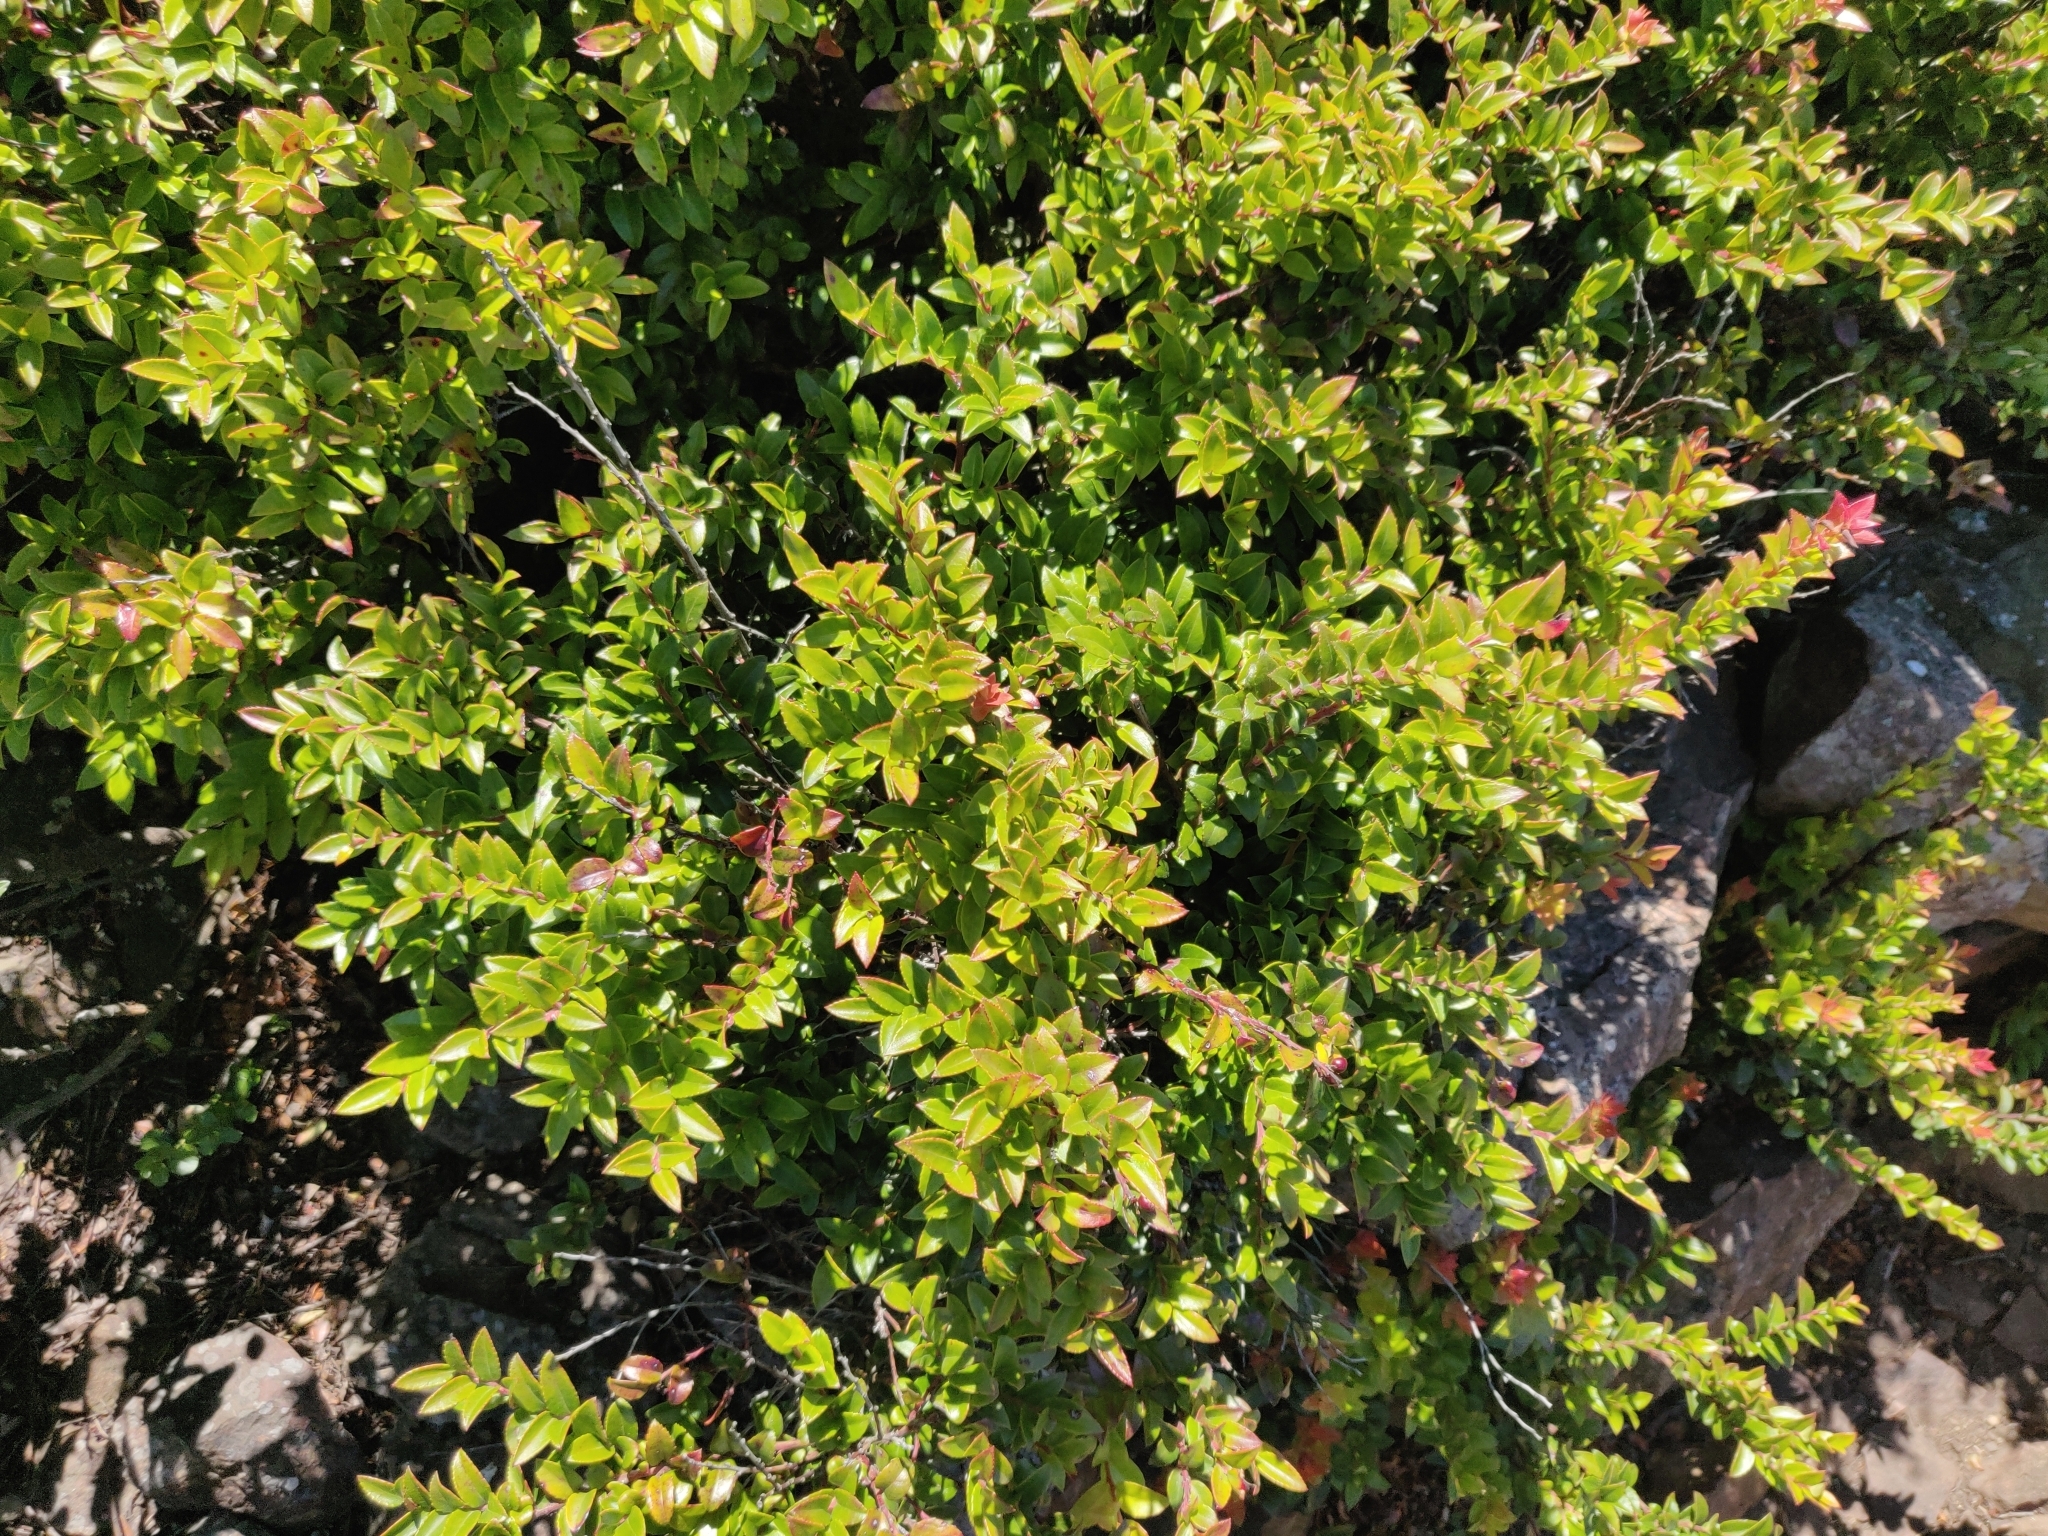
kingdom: Plantae
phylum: Tracheophyta
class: Magnoliopsida
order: Ericales
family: Ericaceae
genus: Vaccinium
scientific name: Vaccinium ovatum
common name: California-huckleberry
